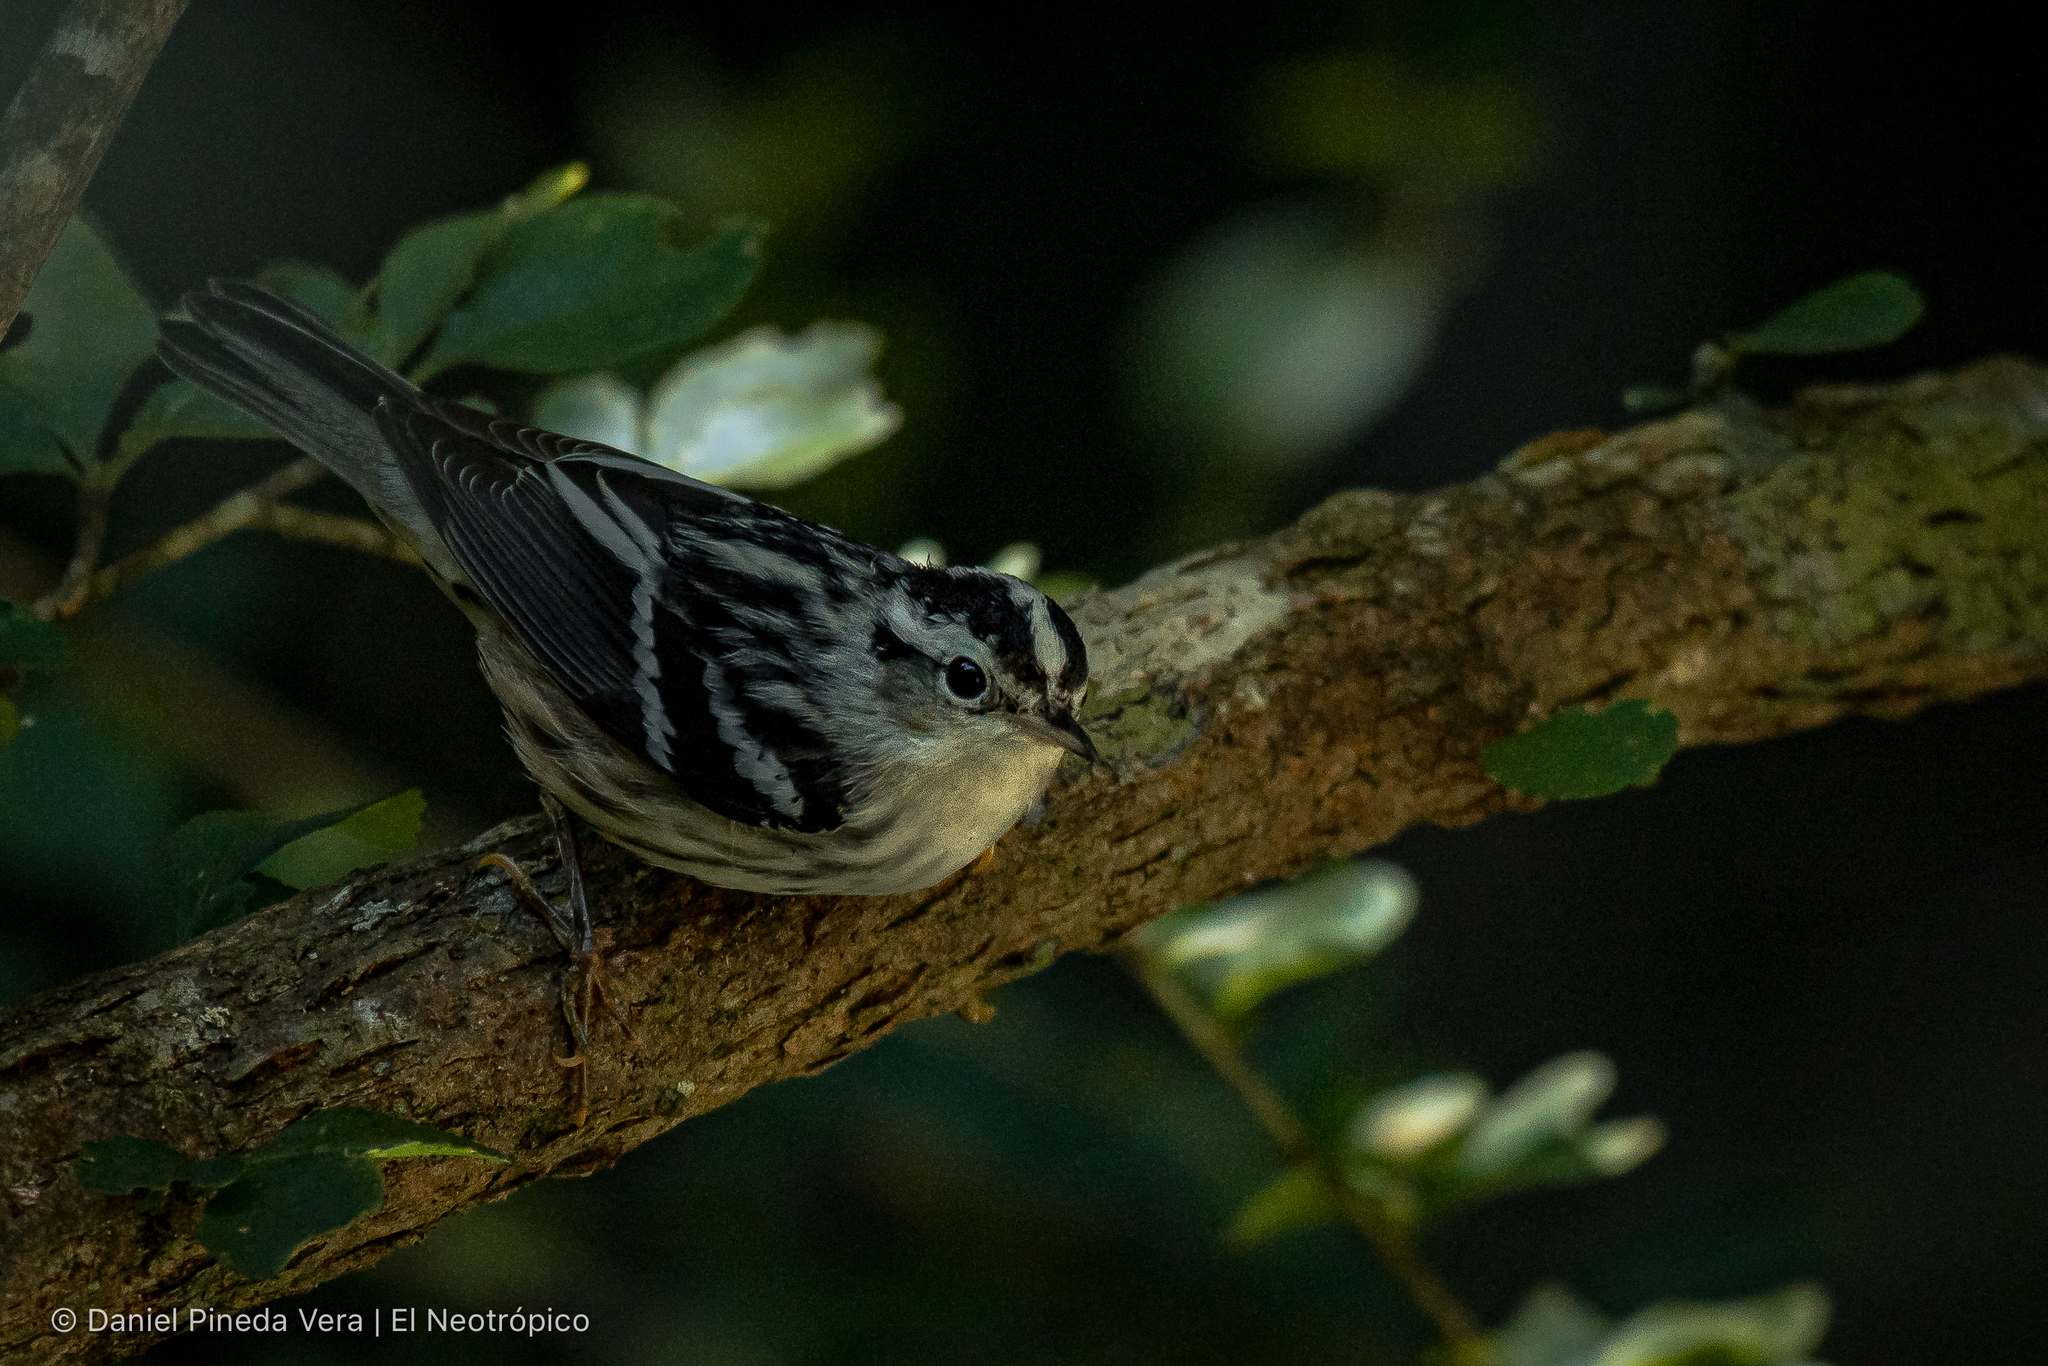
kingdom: Animalia
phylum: Chordata
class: Aves
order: Passeriformes
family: Parulidae
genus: Mniotilta
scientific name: Mniotilta varia
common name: Black-and-white warbler
